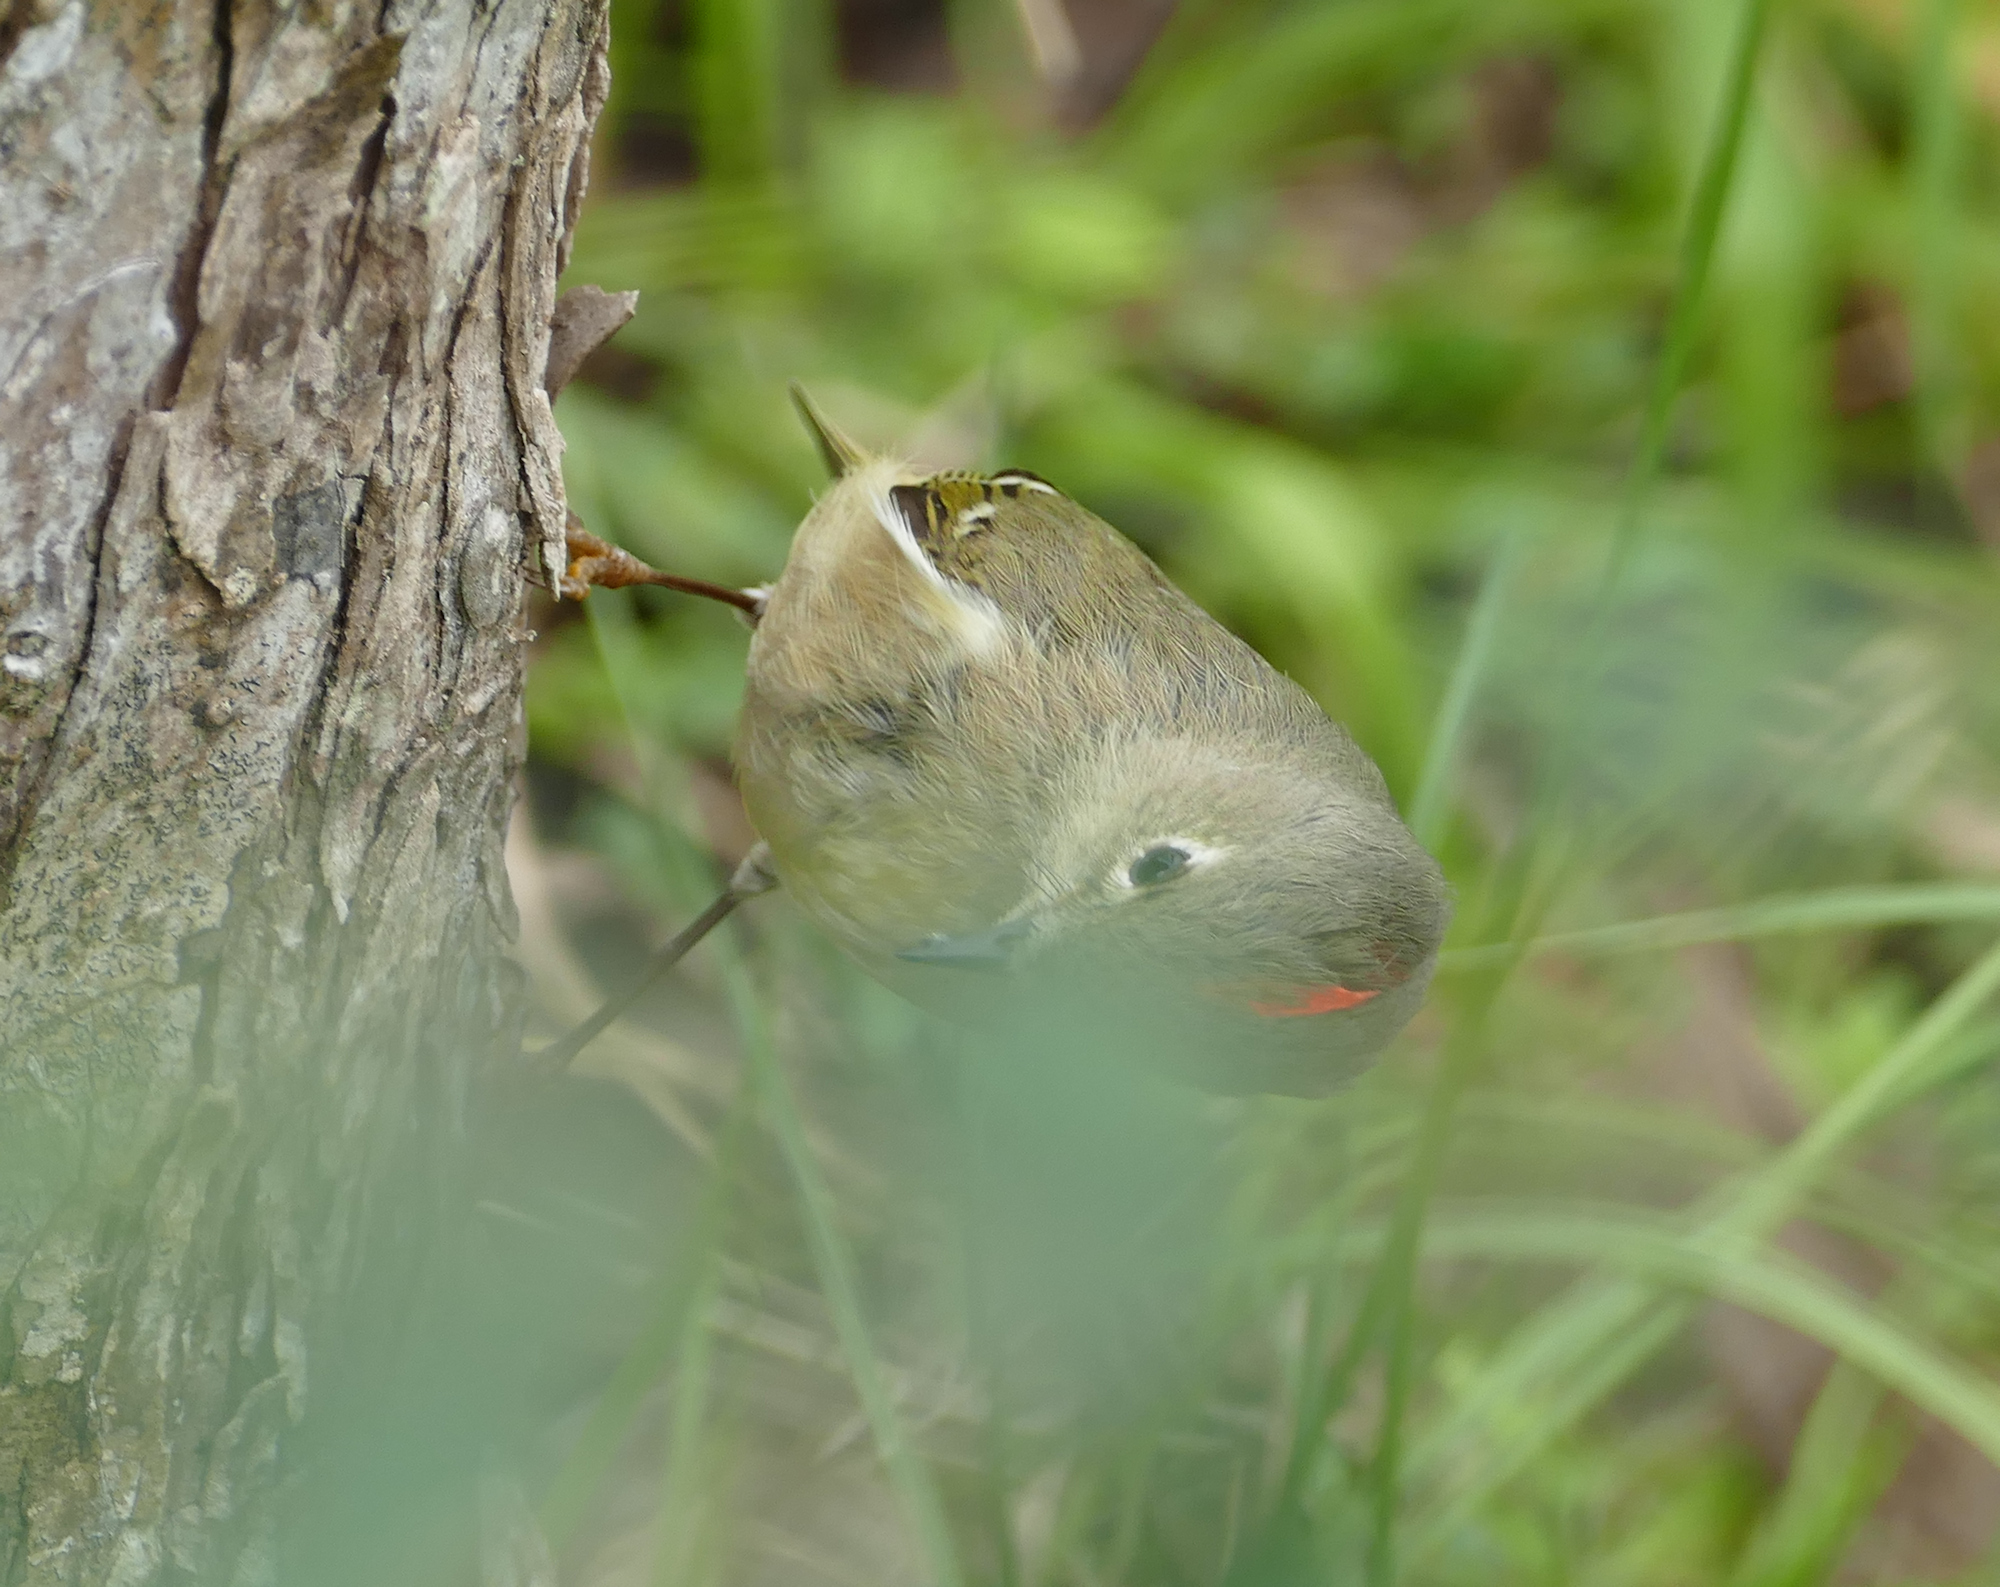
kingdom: Animalia
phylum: Chordata
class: Aves
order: Passeriformes
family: Regulidae
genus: Regulus
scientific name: Regulus calendula
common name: Ruby-crowned kinglet
